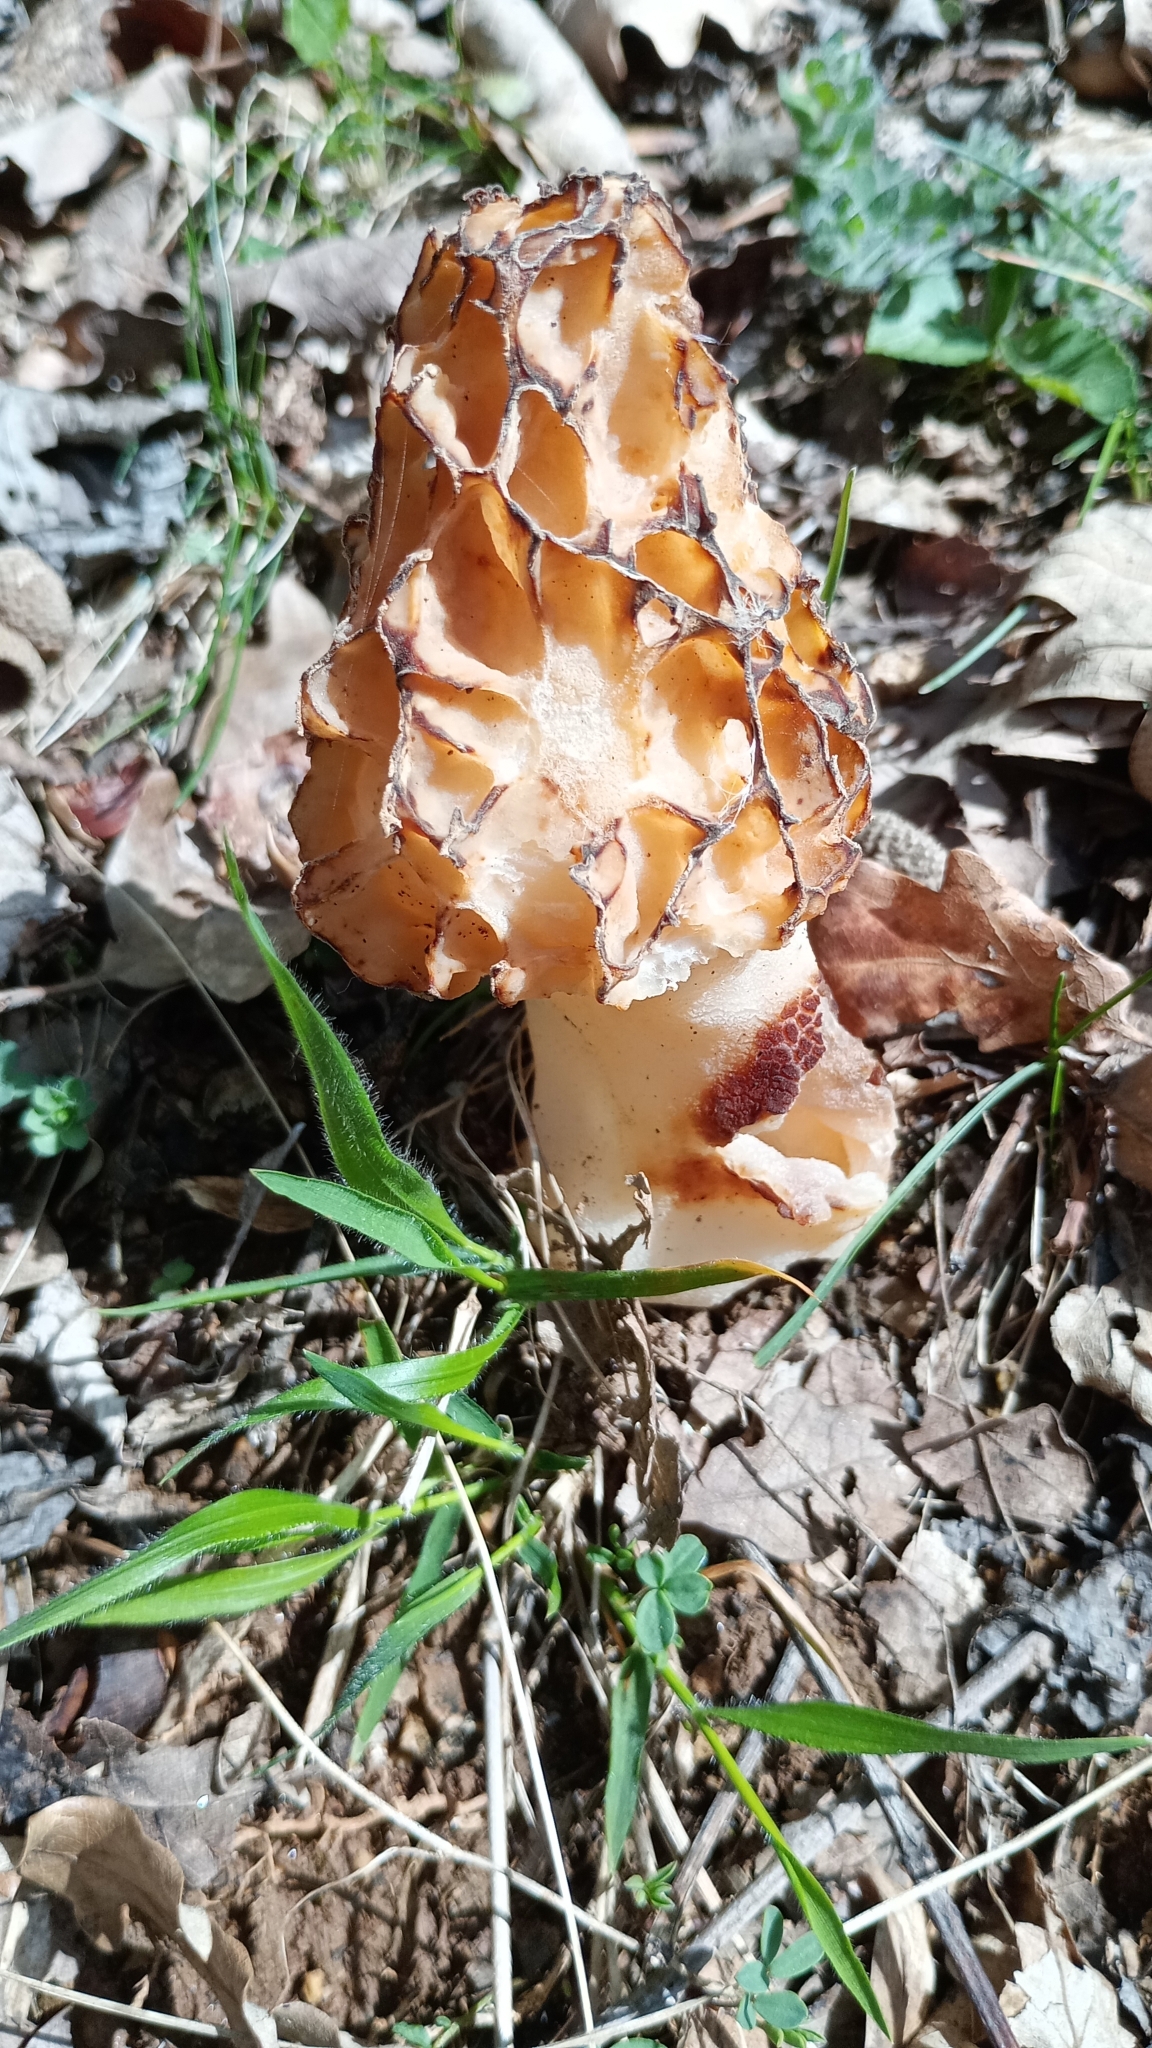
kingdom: Fungi
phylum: Ascomycota
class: Pezizomycetes
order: Pezizales
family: Morchellaceae
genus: Morchella
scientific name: Morchella esculenta
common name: Morel
